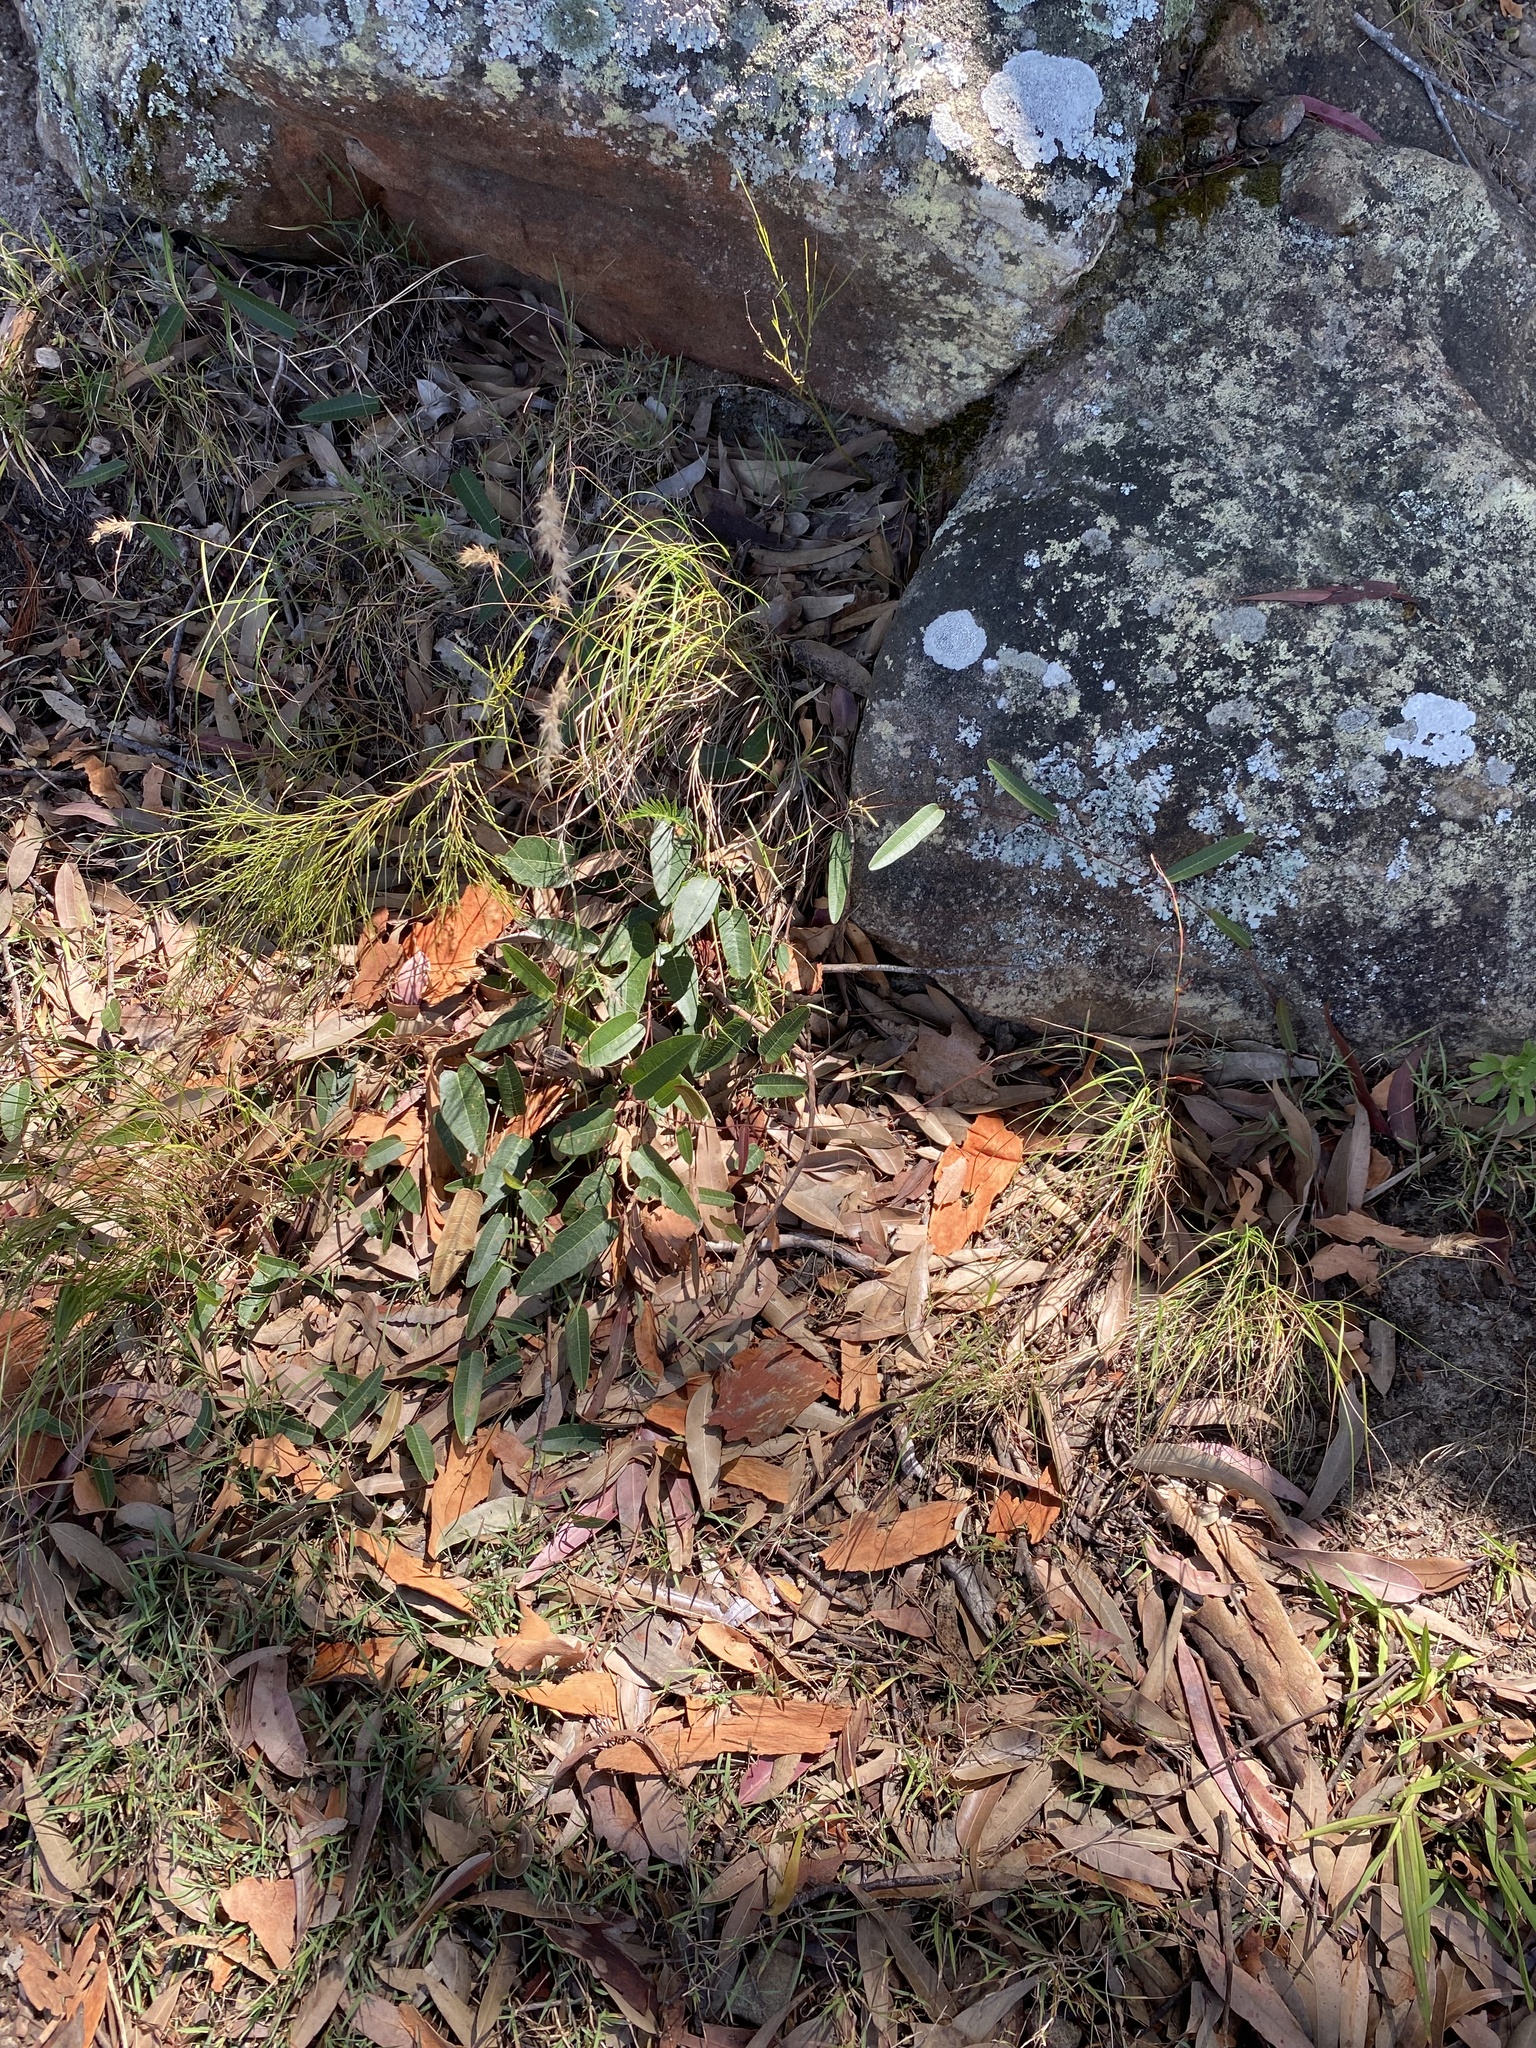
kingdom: Plantae
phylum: Tracheophyta
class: Magnoliopsida
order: Fabales
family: Fabaceae
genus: Hardenbergia
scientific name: Hardenbergia violacea
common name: Coral-pea
